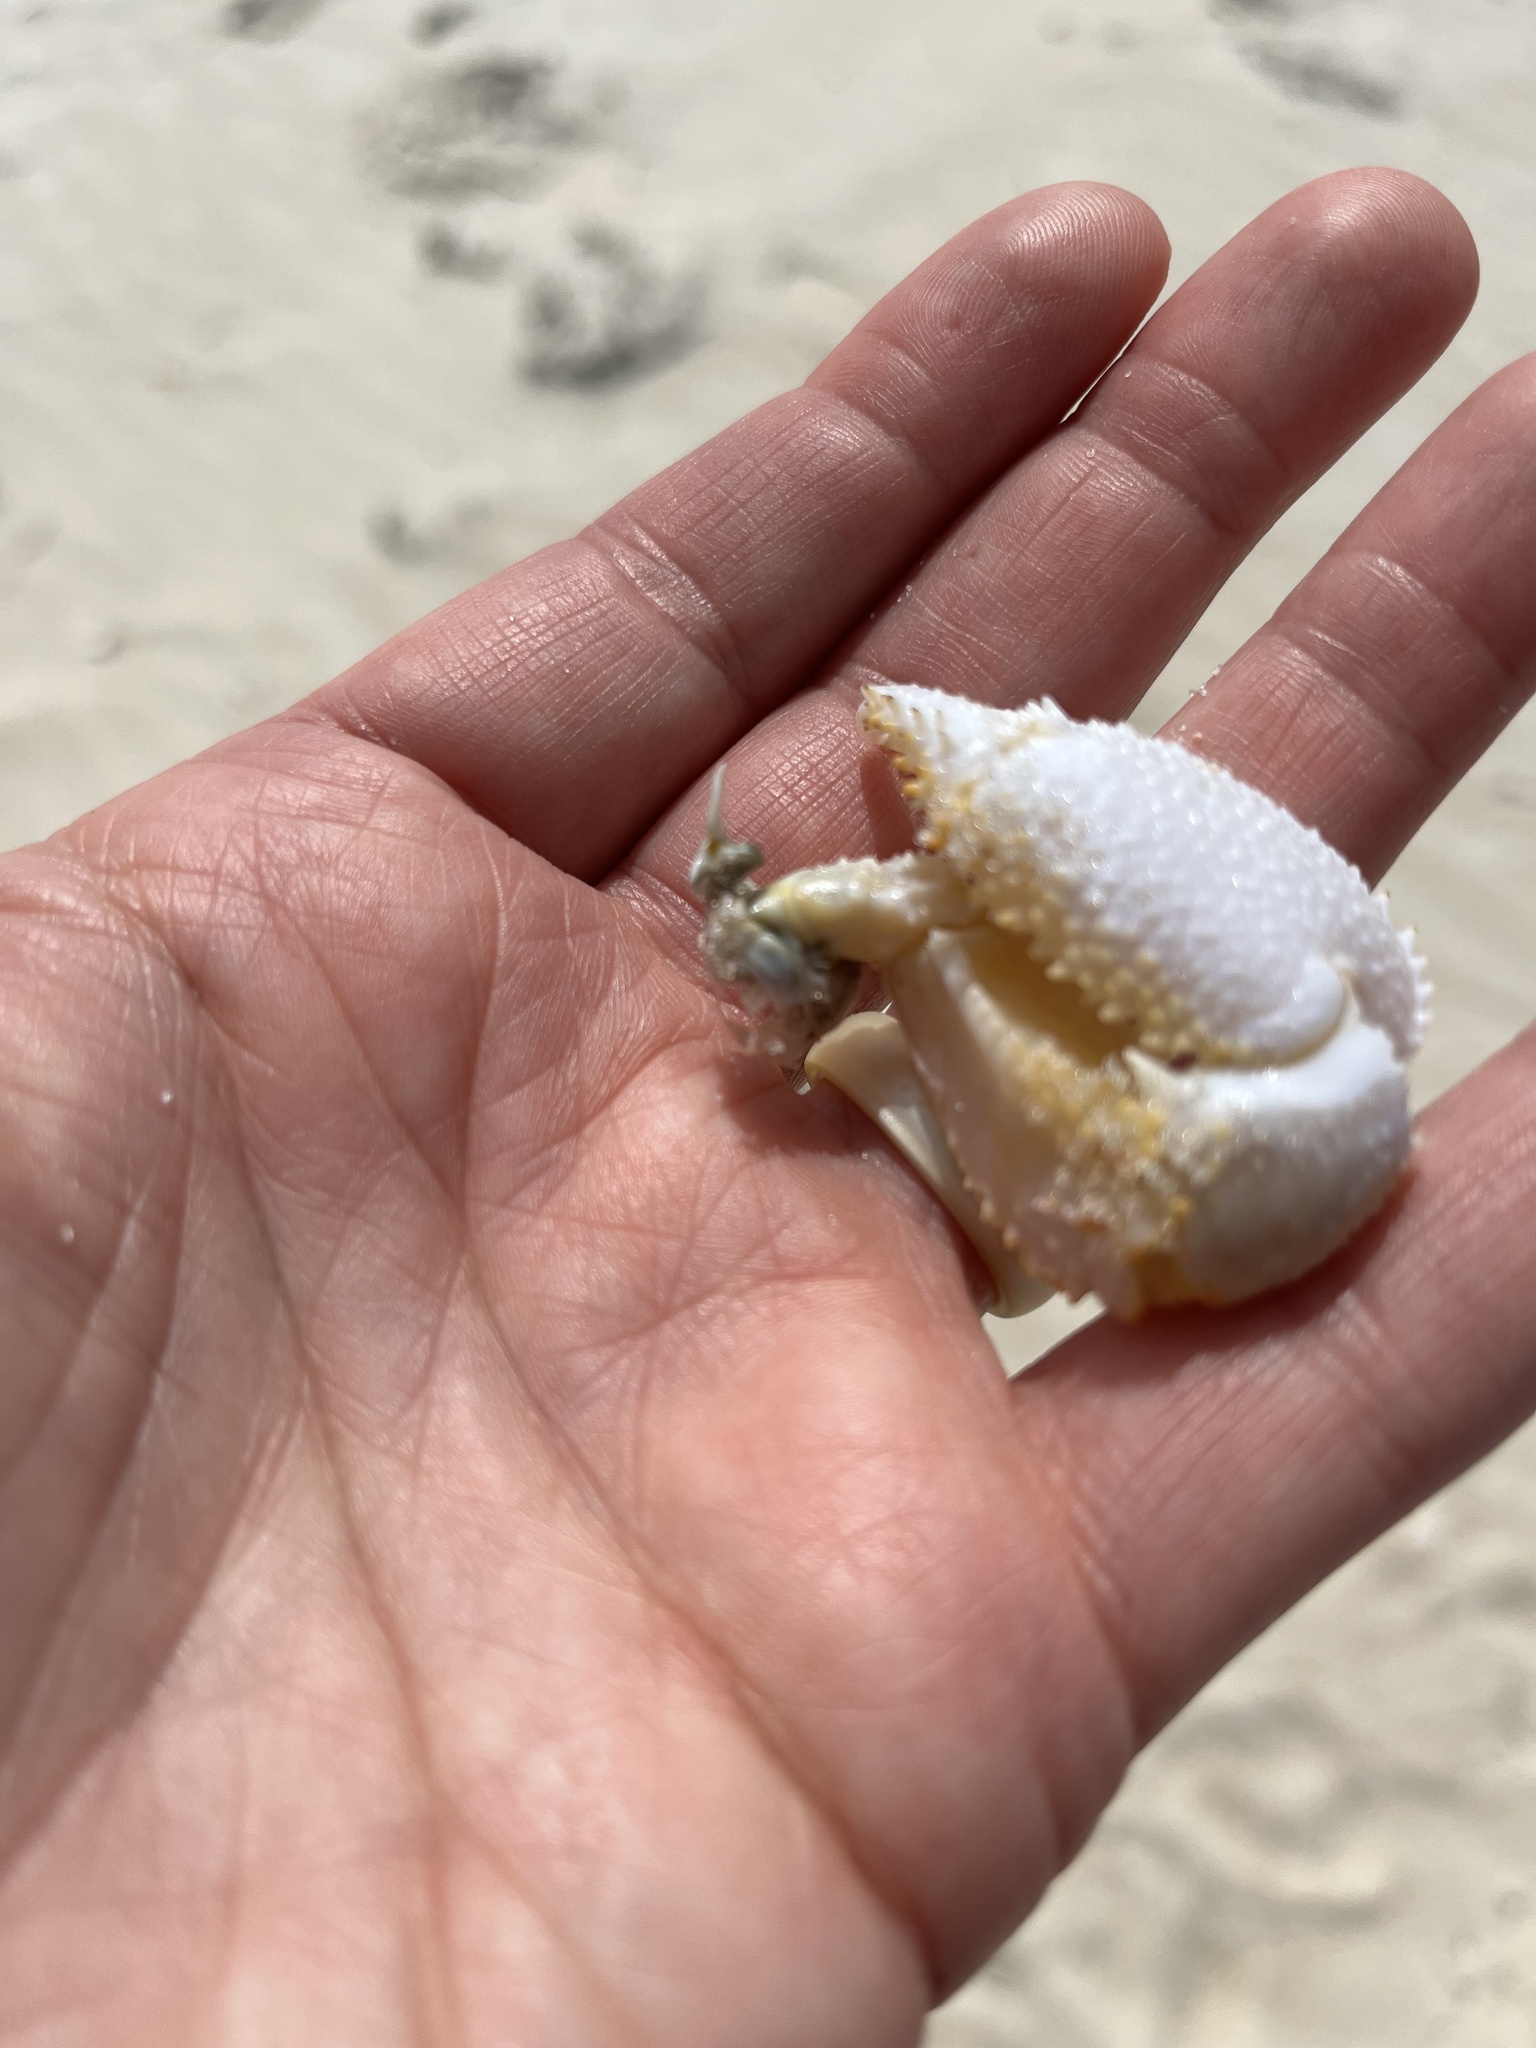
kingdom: Animalia
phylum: Arthropoda
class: Malacostraca
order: Decapoda
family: Ocypodidae
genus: Ocypode
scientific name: Ocypode quadrata
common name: Ghost crab
